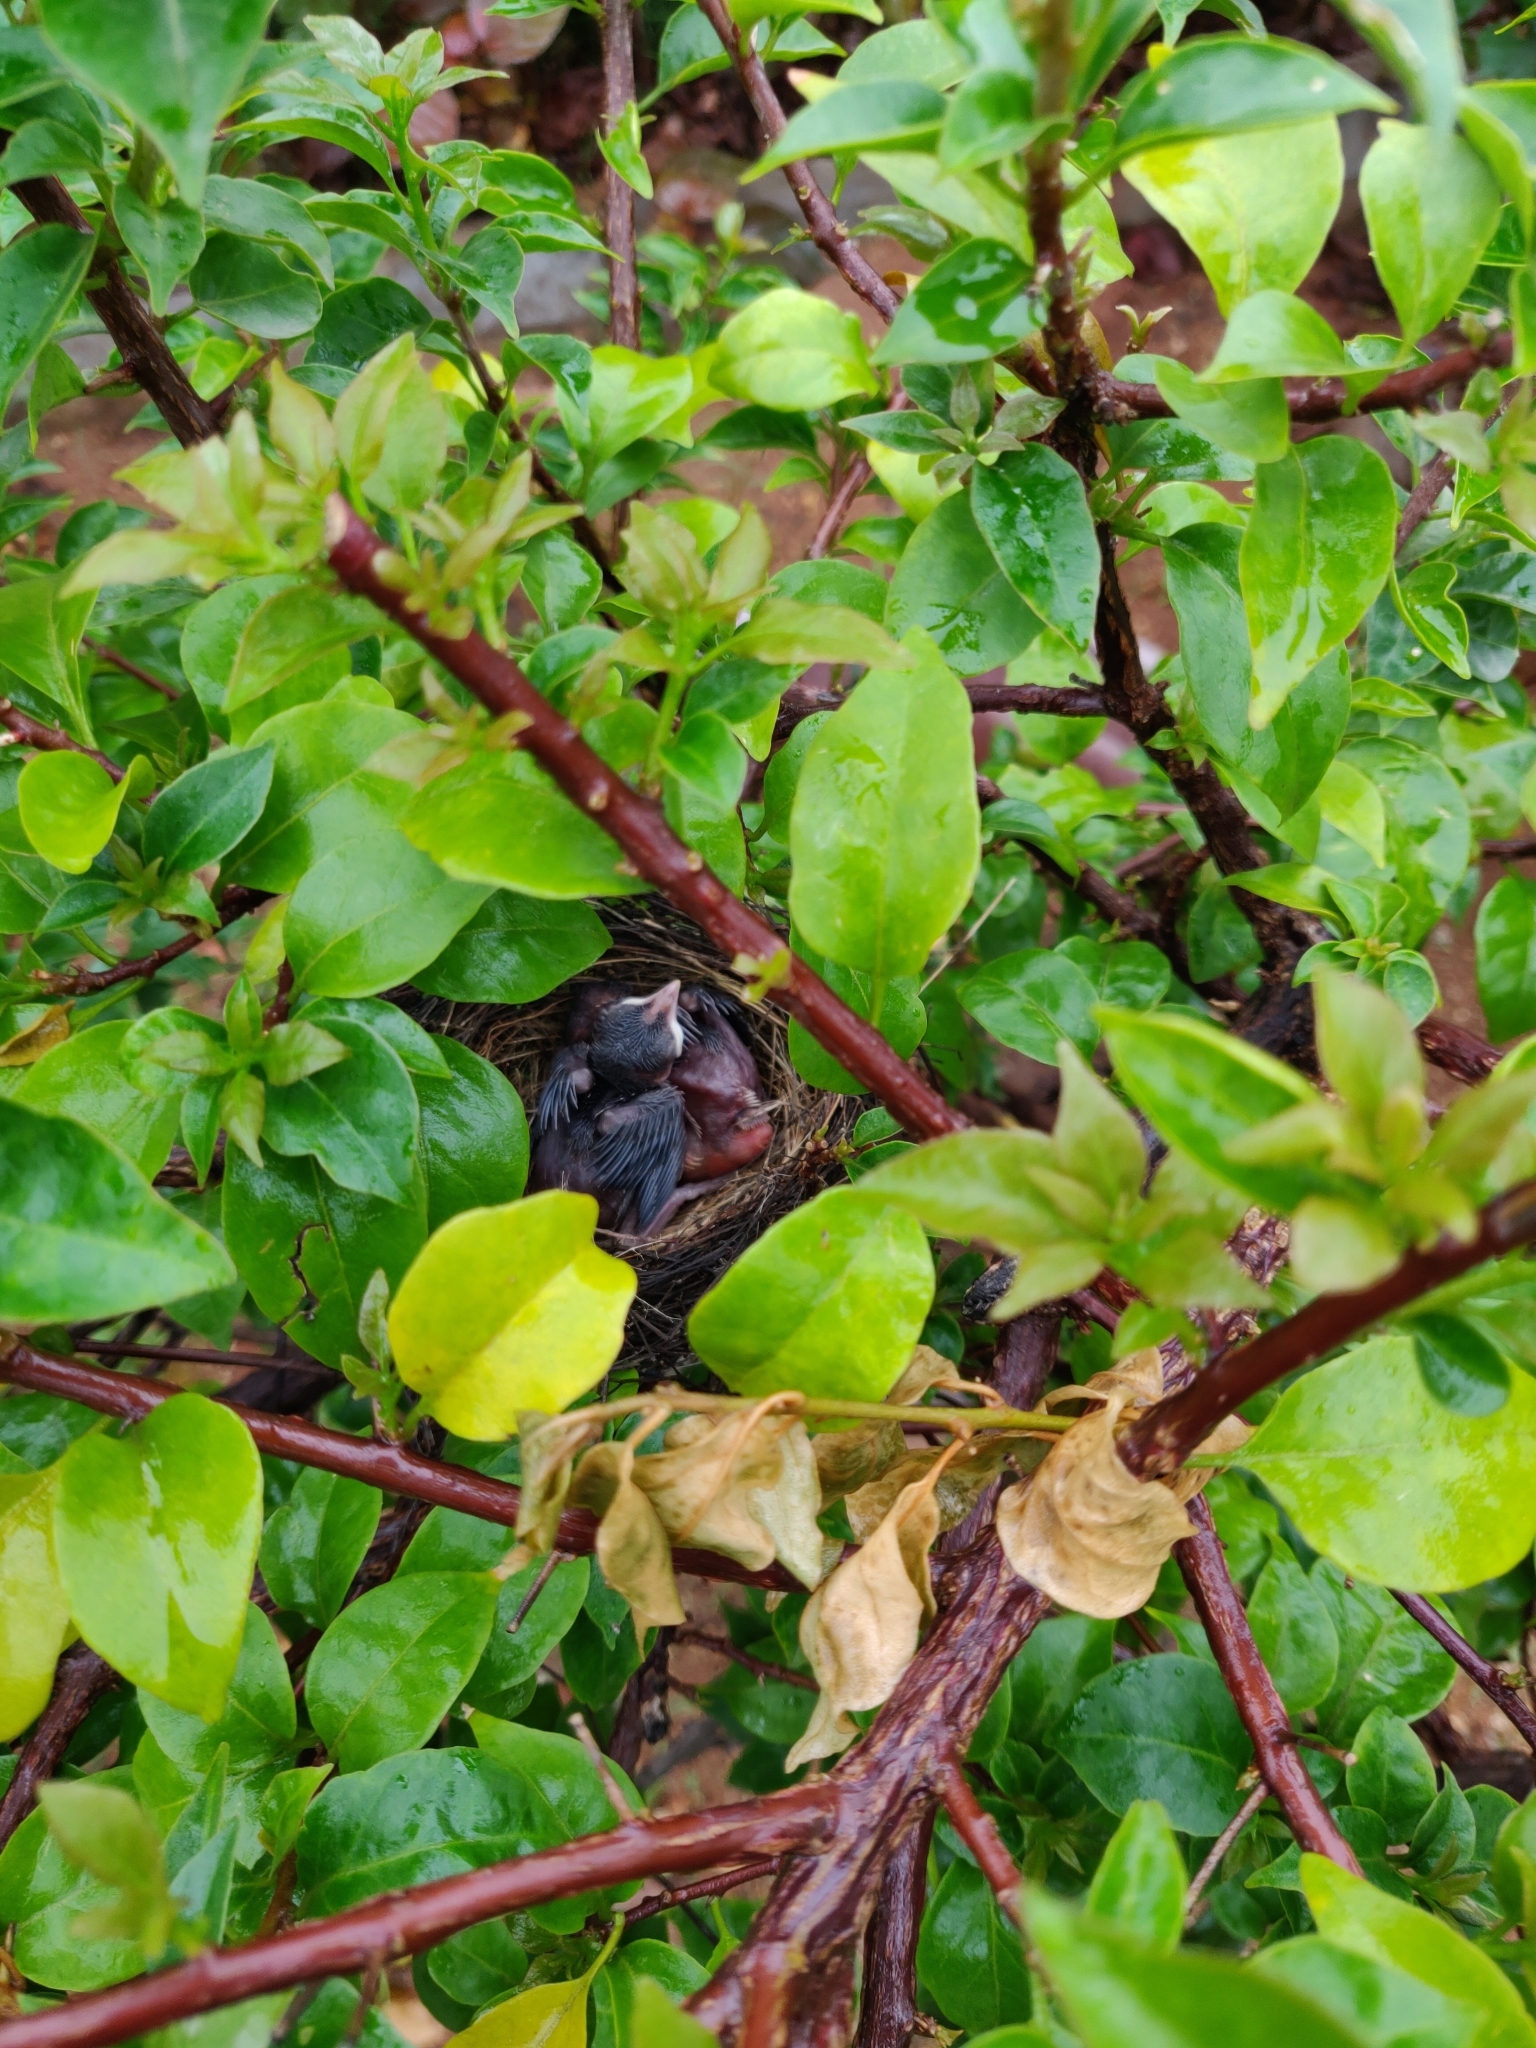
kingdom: Animalia
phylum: Chordata
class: Aves
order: Passeriformes
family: Pycnonotidae
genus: Pycnonotus
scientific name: Pycnonotus cafer
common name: Red-vented bulbul
